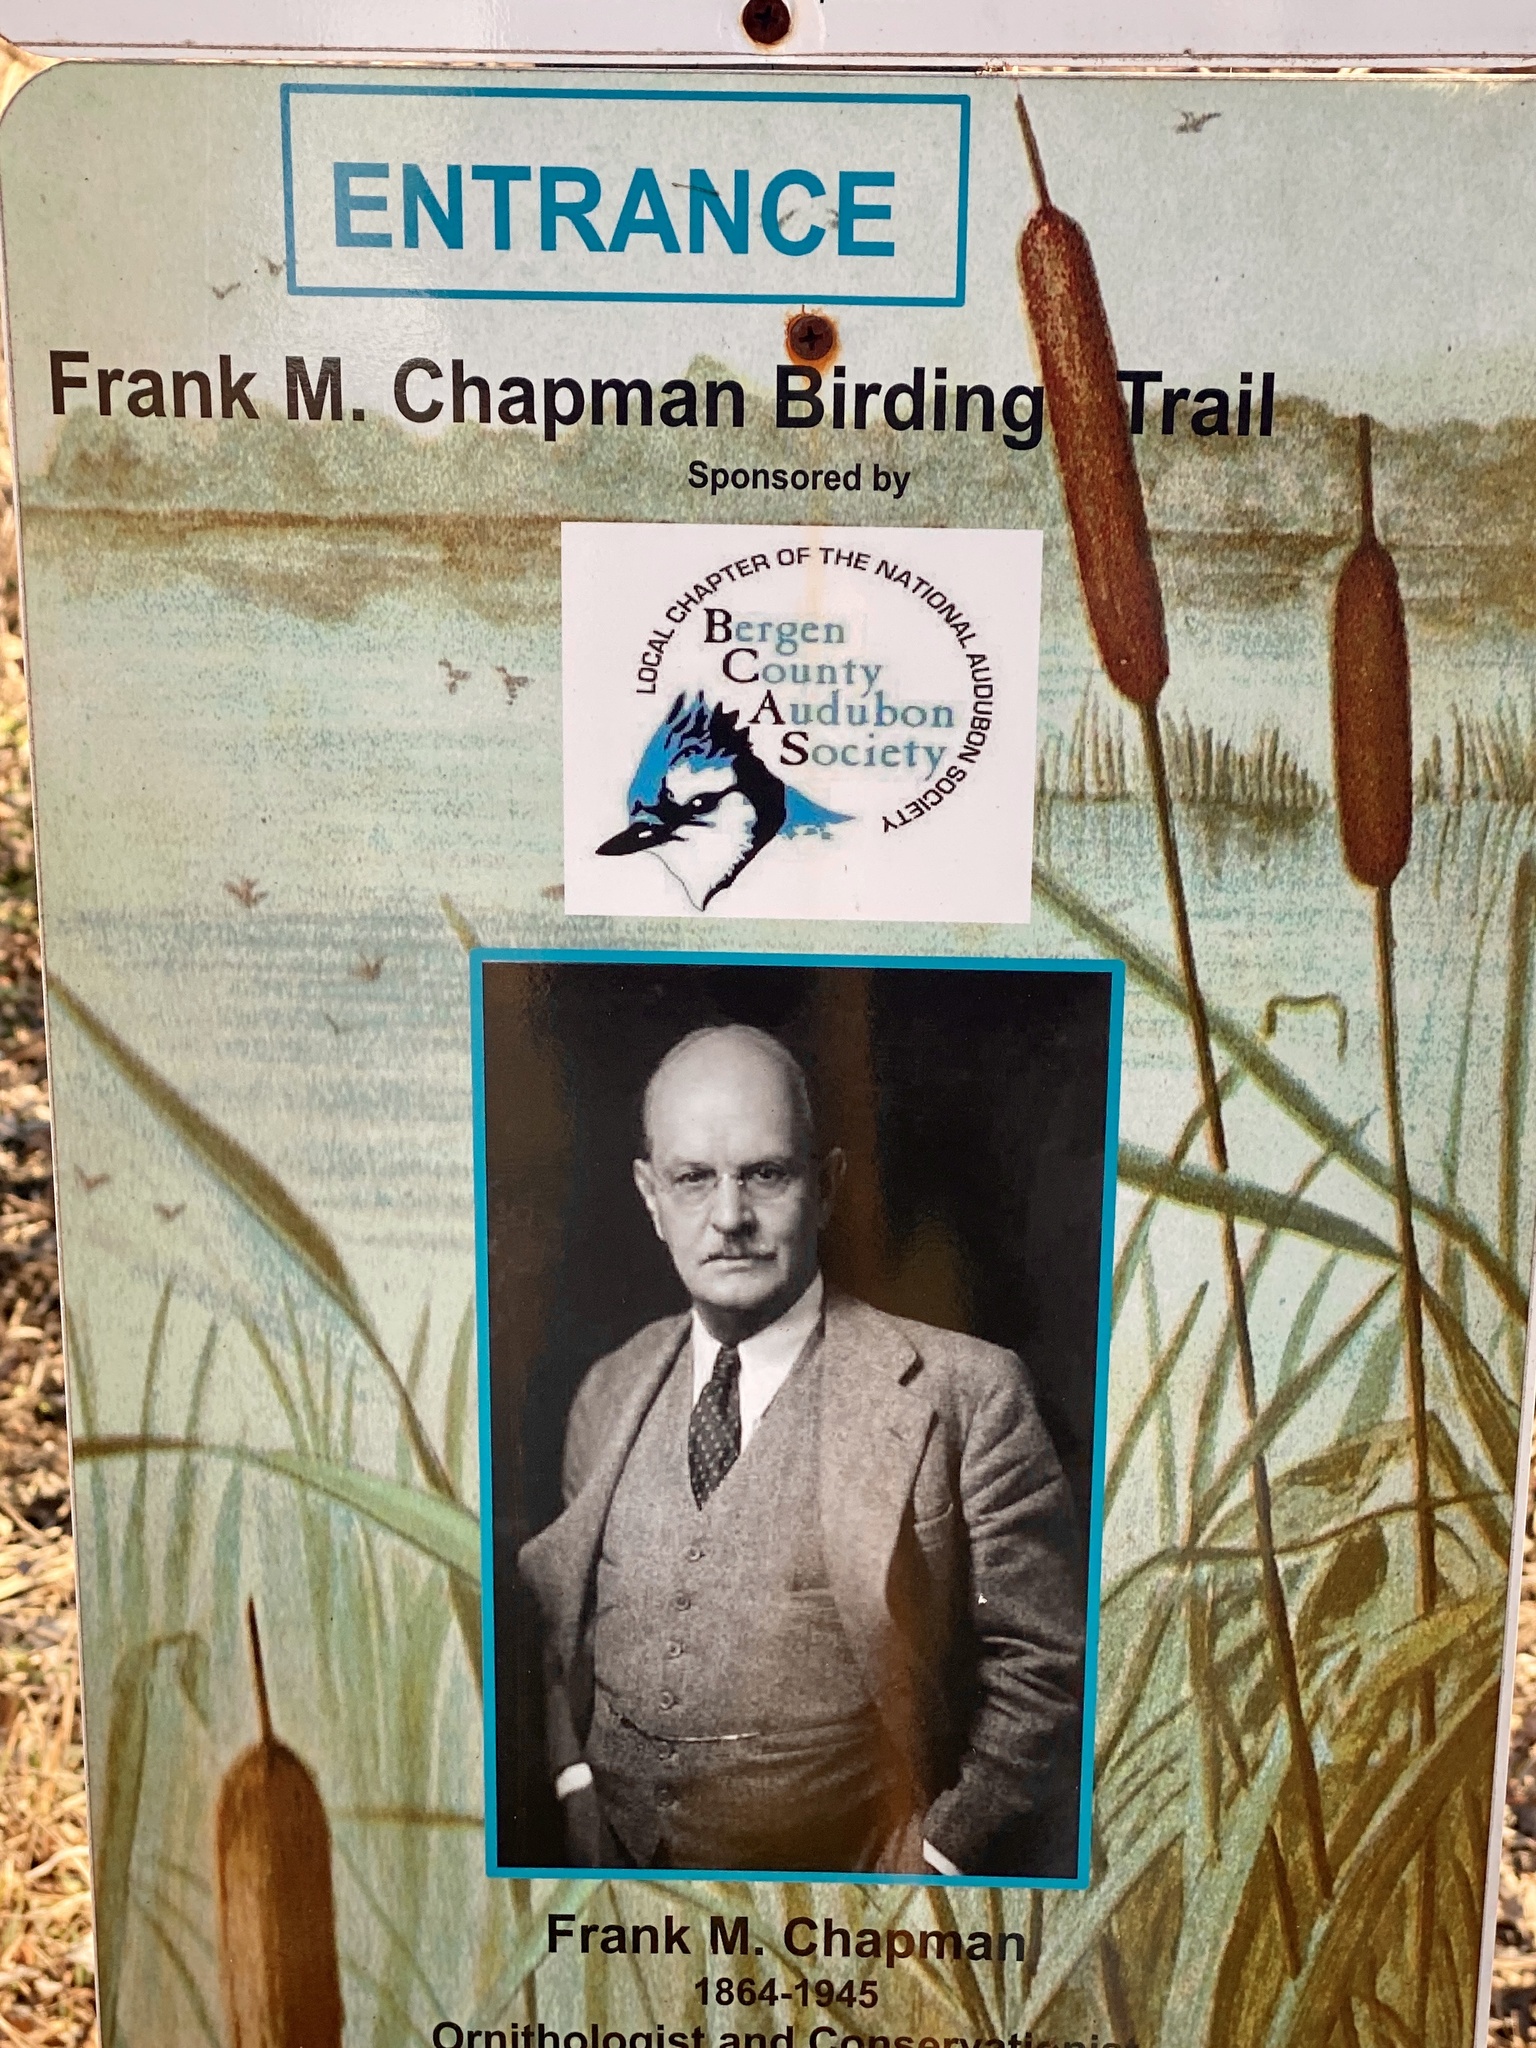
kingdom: Plantae
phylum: Tracheophyta
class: Magnoliopsida
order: Dipsacales
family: Caprifoliaceae
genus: Lonicera
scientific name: Lonicera japonica
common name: Japanese honeysuckle
